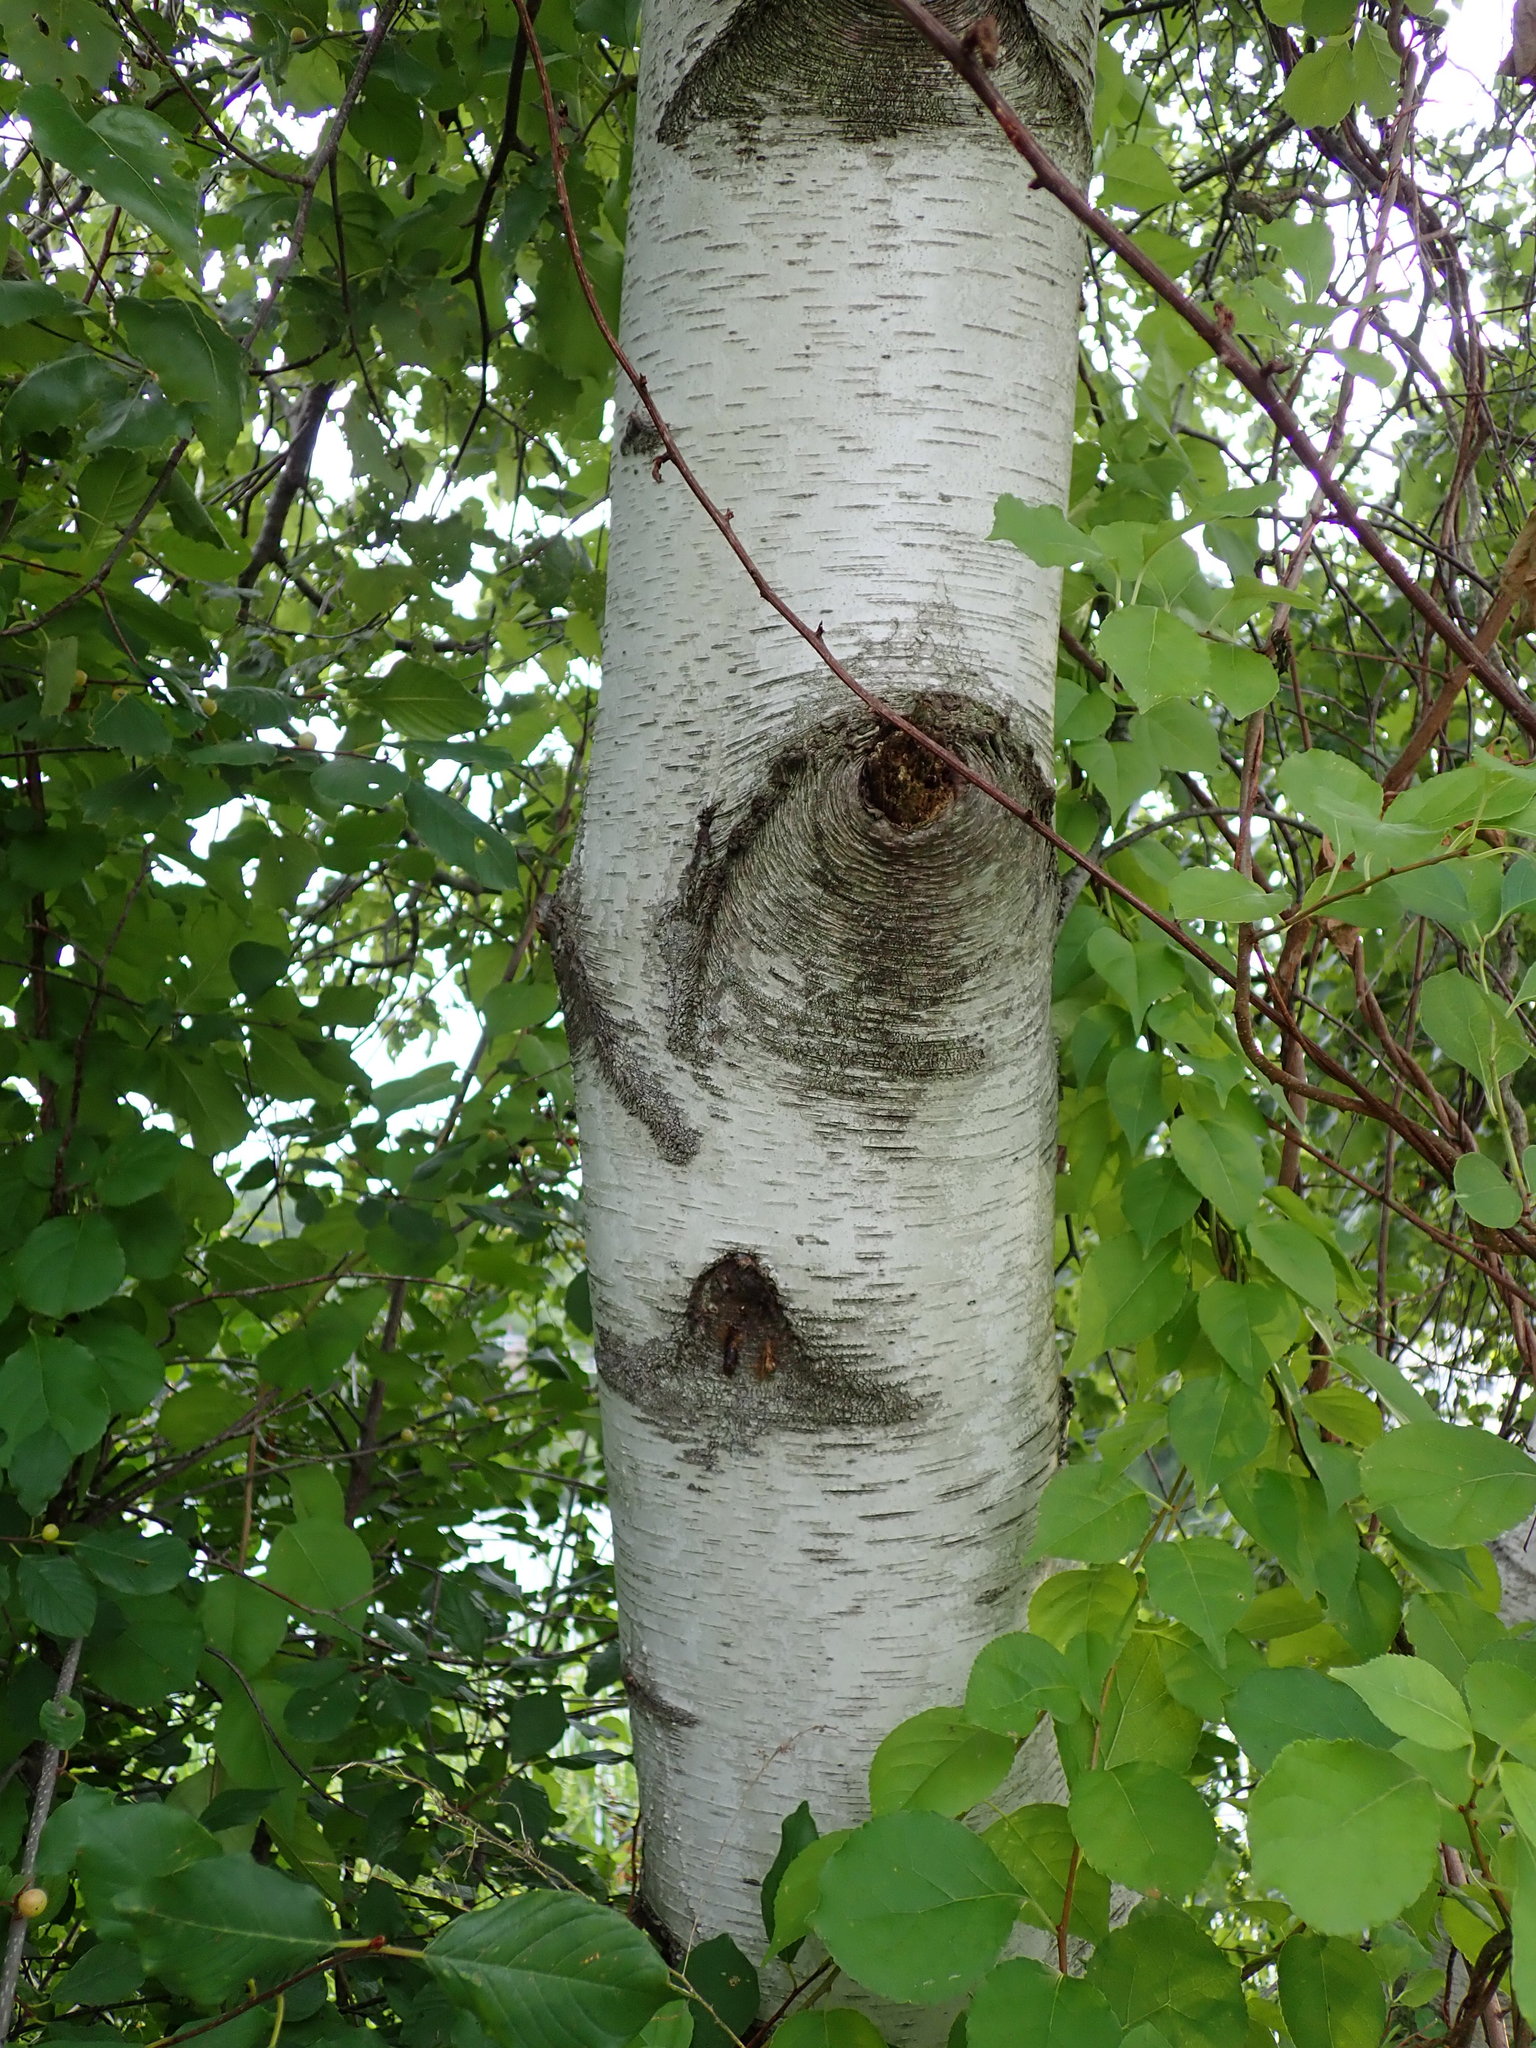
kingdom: Plantae
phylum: Tracheophyta
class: Magnoliopsida
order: Fagales
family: Betulaceae
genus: Betula
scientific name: Betula populifolia
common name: Fire birch
